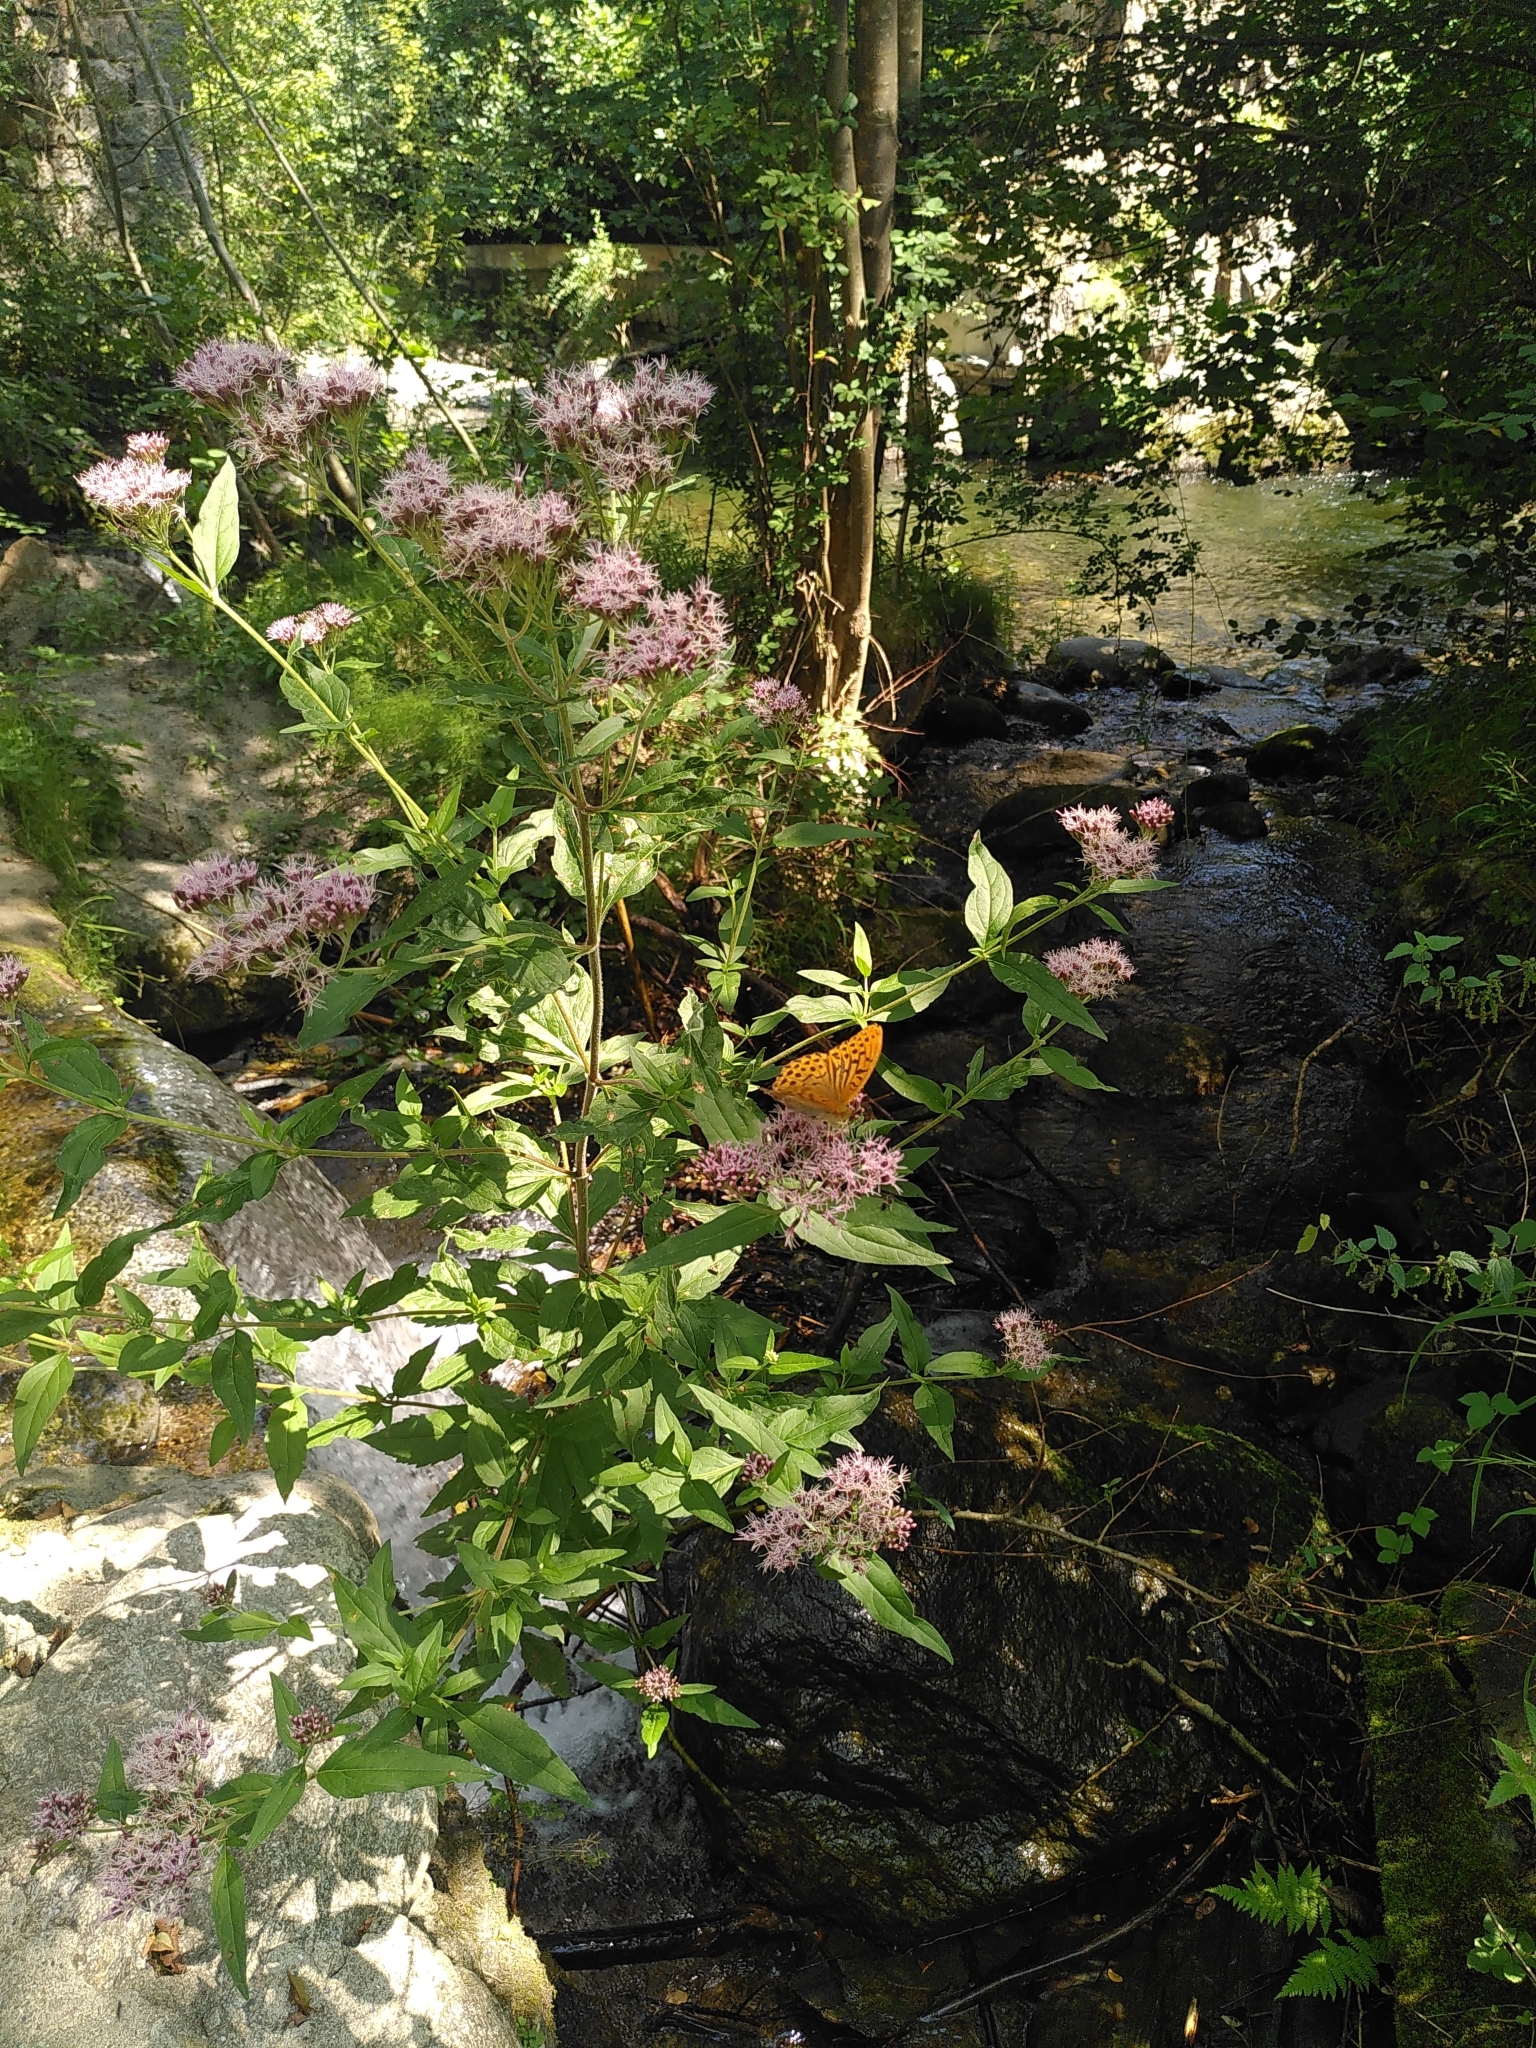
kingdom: Plantae
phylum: Tracheophyta
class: Magnoliopsida
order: Asterales
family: Asteraceae
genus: Eupatorium
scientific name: Eupatorium cannabinum
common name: Hemp-agrimony
